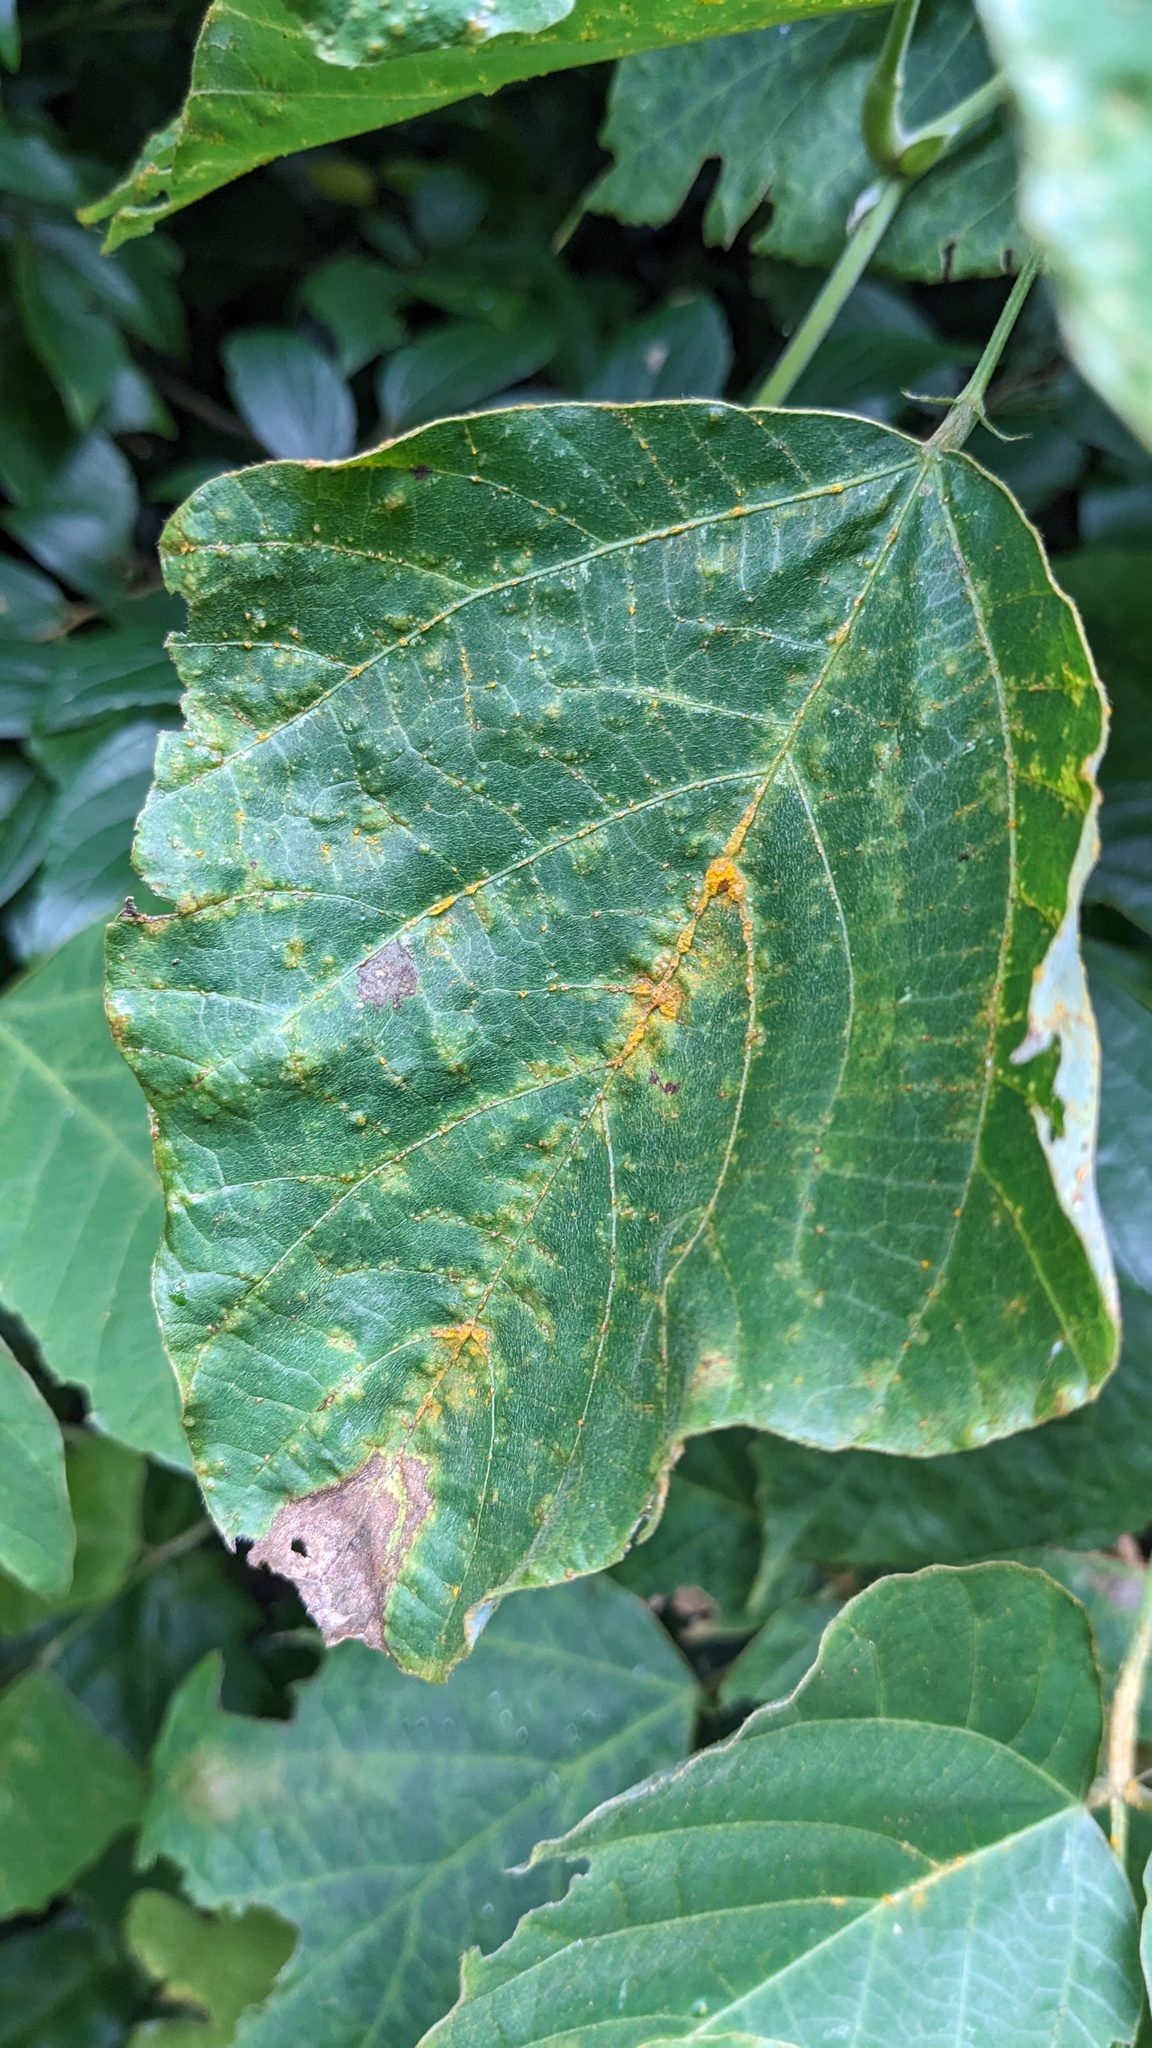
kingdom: Fungi
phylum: Chytridiomycota
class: Chytridiomycetes
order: Chytridiales
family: Synchytriaceae
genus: Synchytrium
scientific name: Synchytrium minutum
